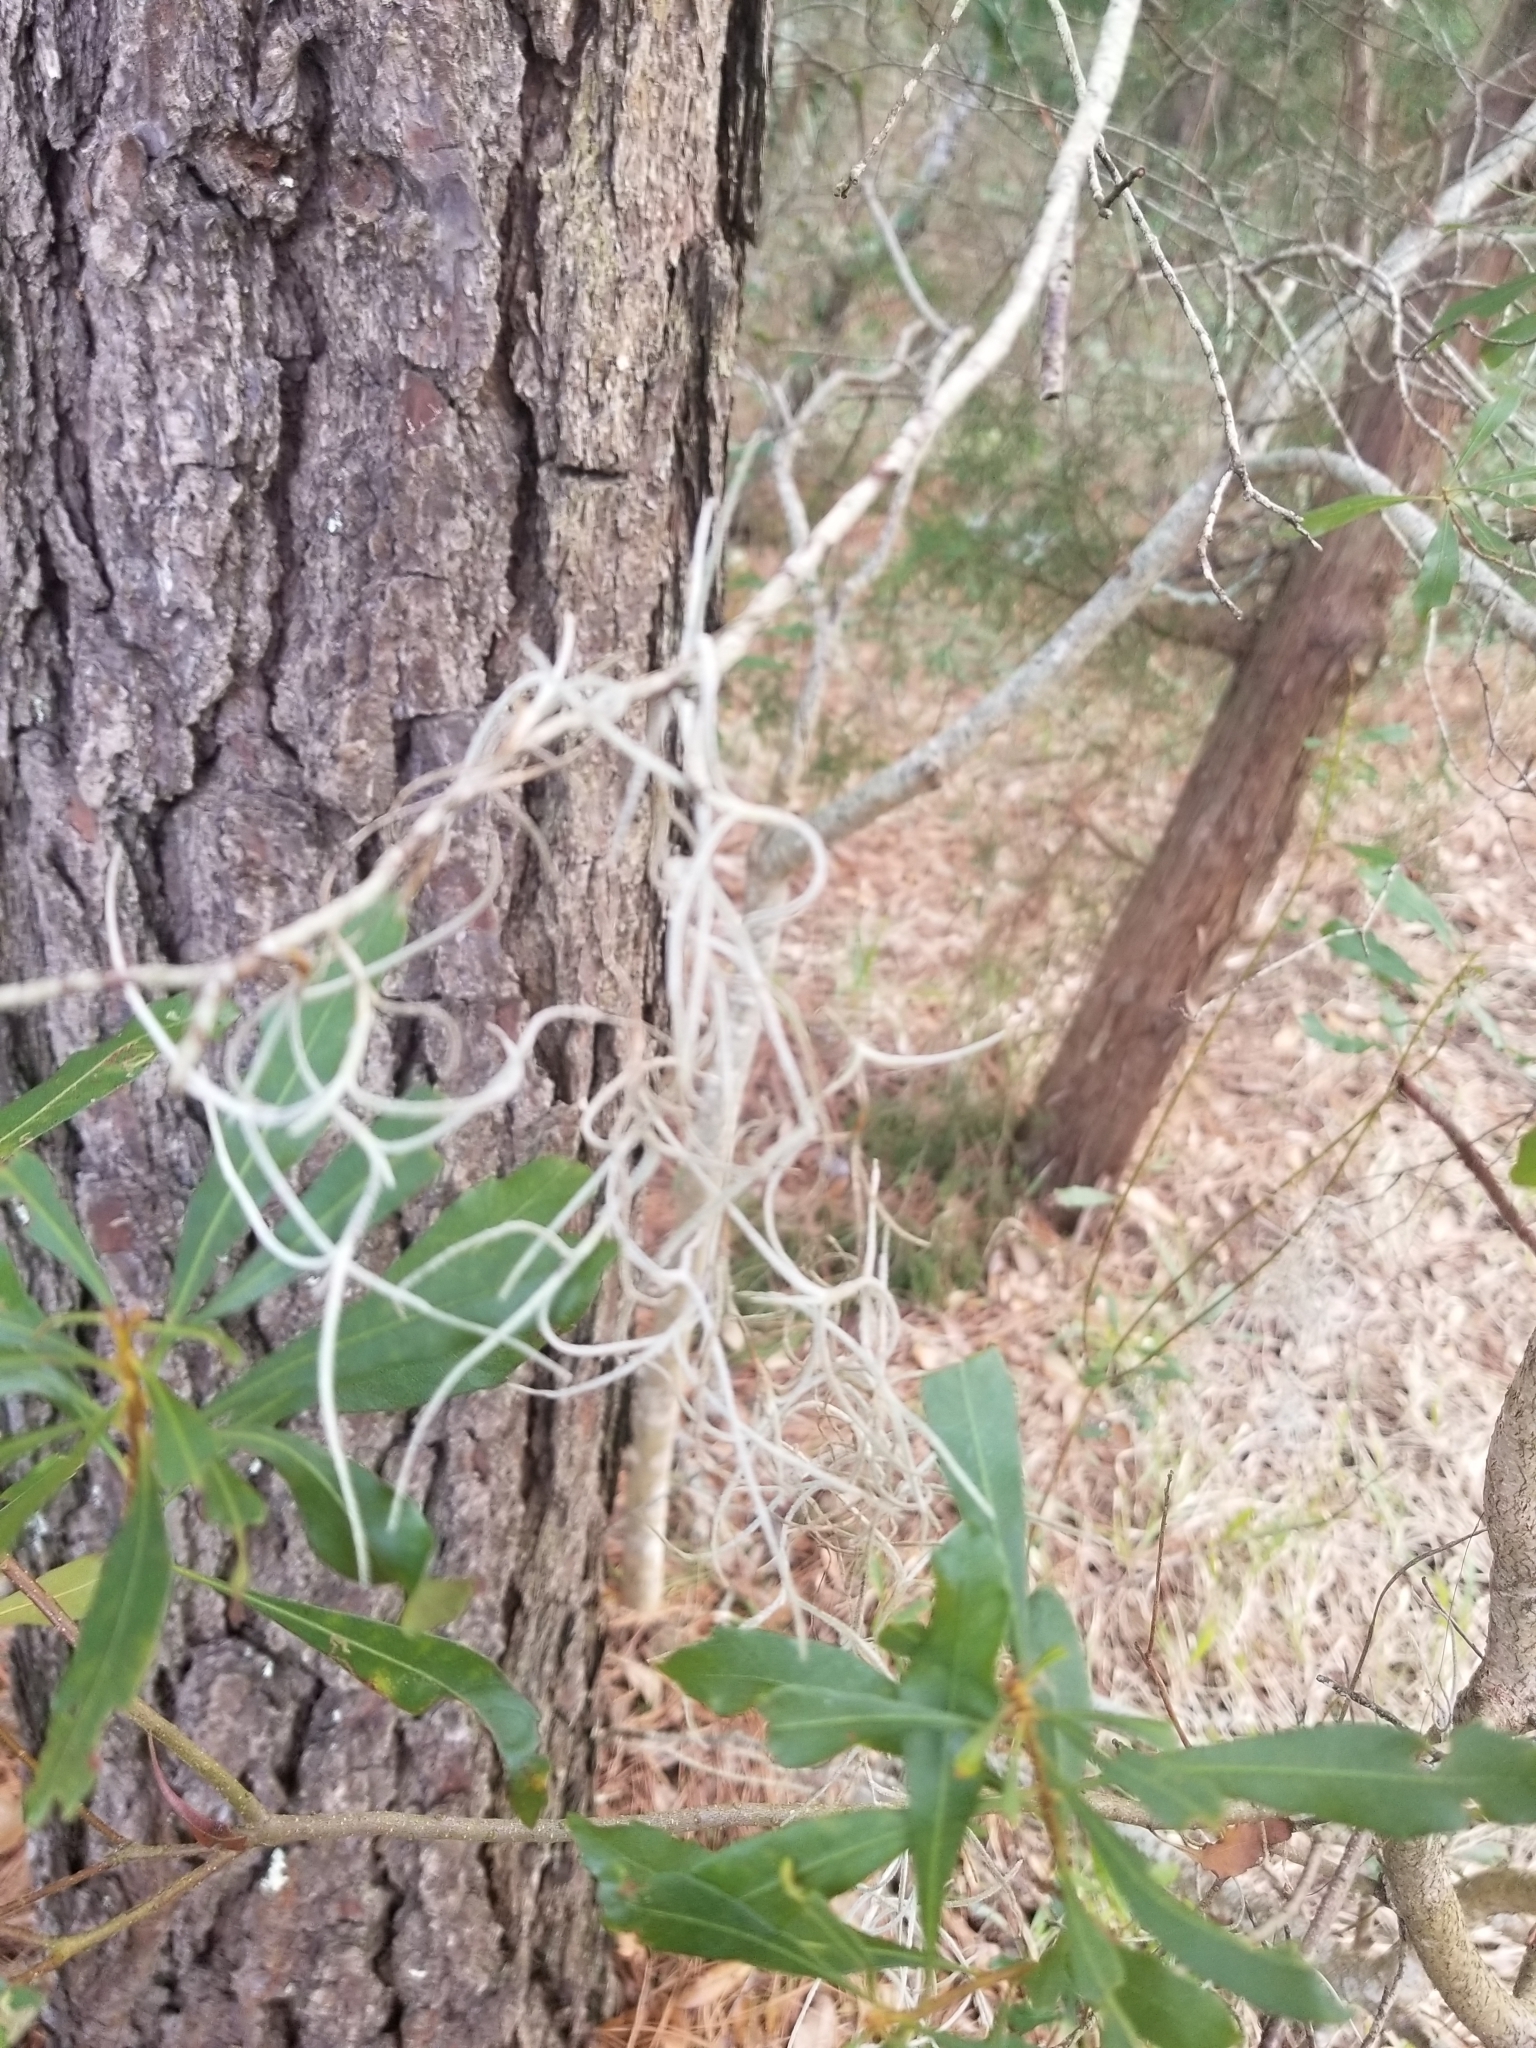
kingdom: Plantae
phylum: Tracheophyta
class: Liliopsida
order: Poales
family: Bromeliaceae
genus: Tillandsia
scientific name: Tillandsia usneoides
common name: Spanish moss
